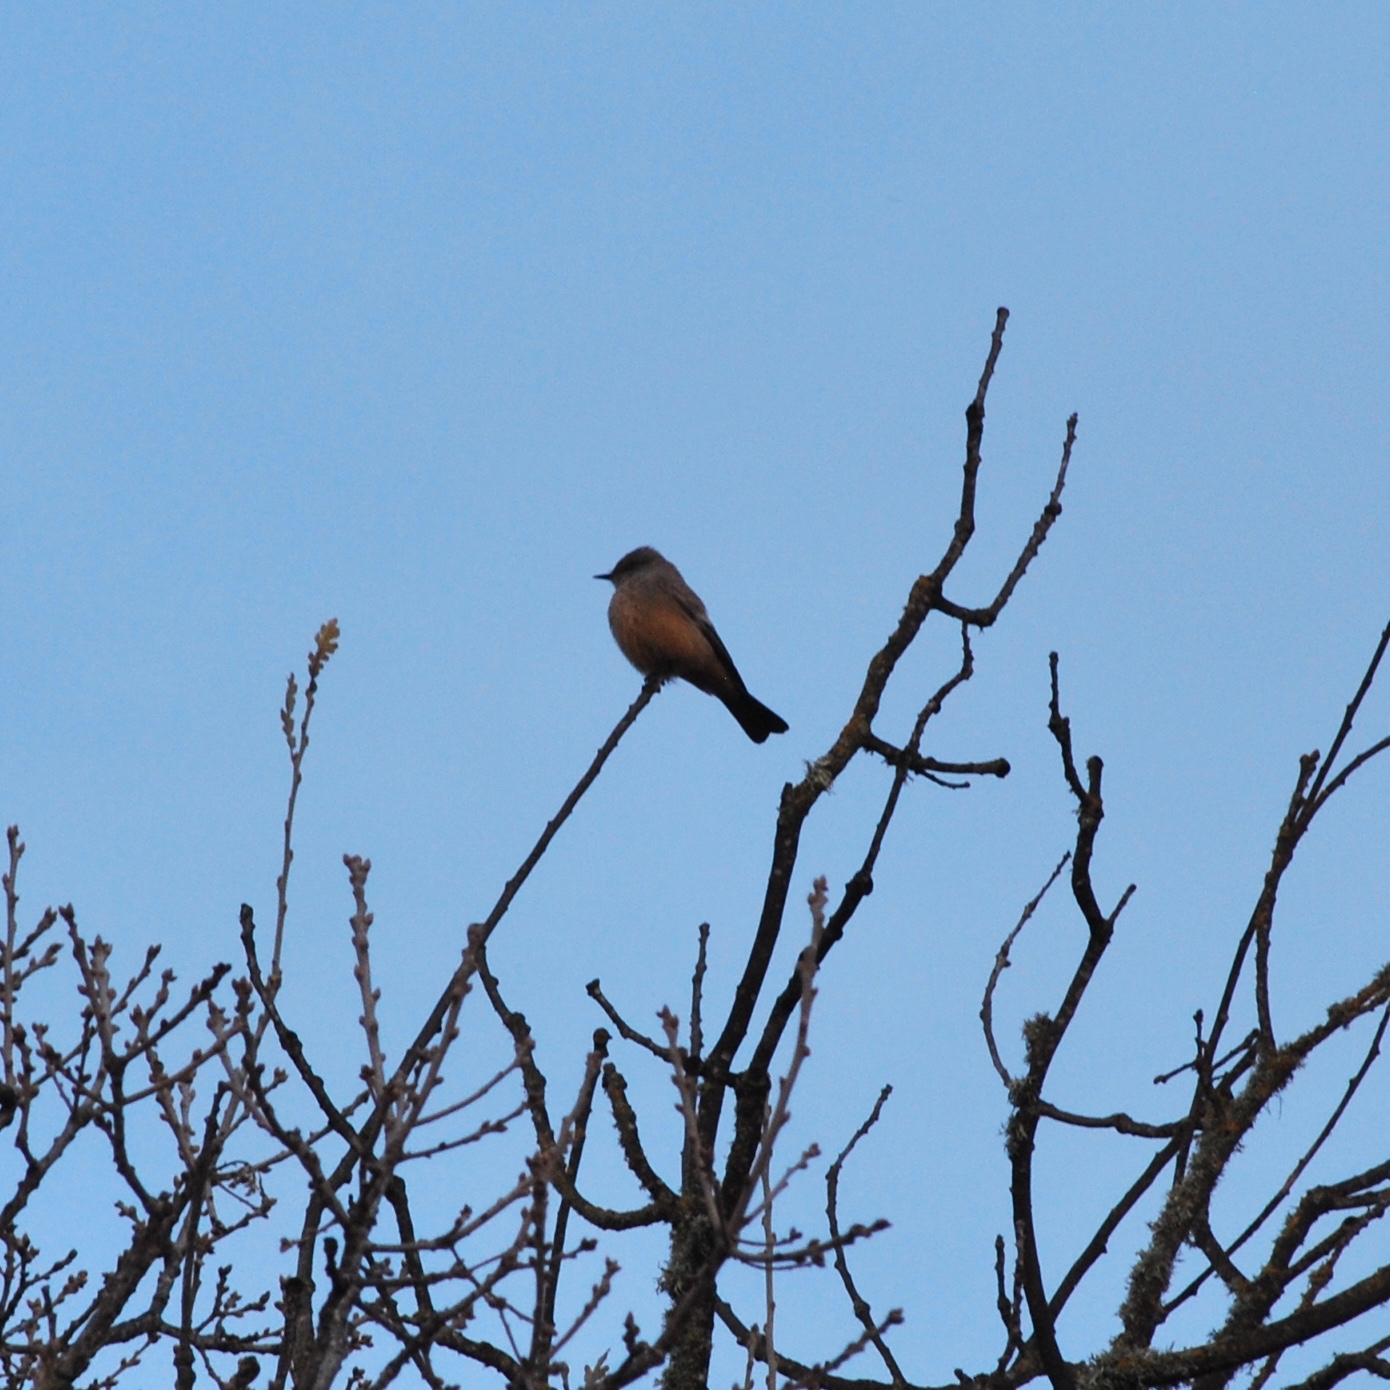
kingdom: Animalia
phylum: Chordata
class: Aves
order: Passeriformes
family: Tyrannidae
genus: Sayornis
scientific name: Sayornis saya
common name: Say's phoebe
